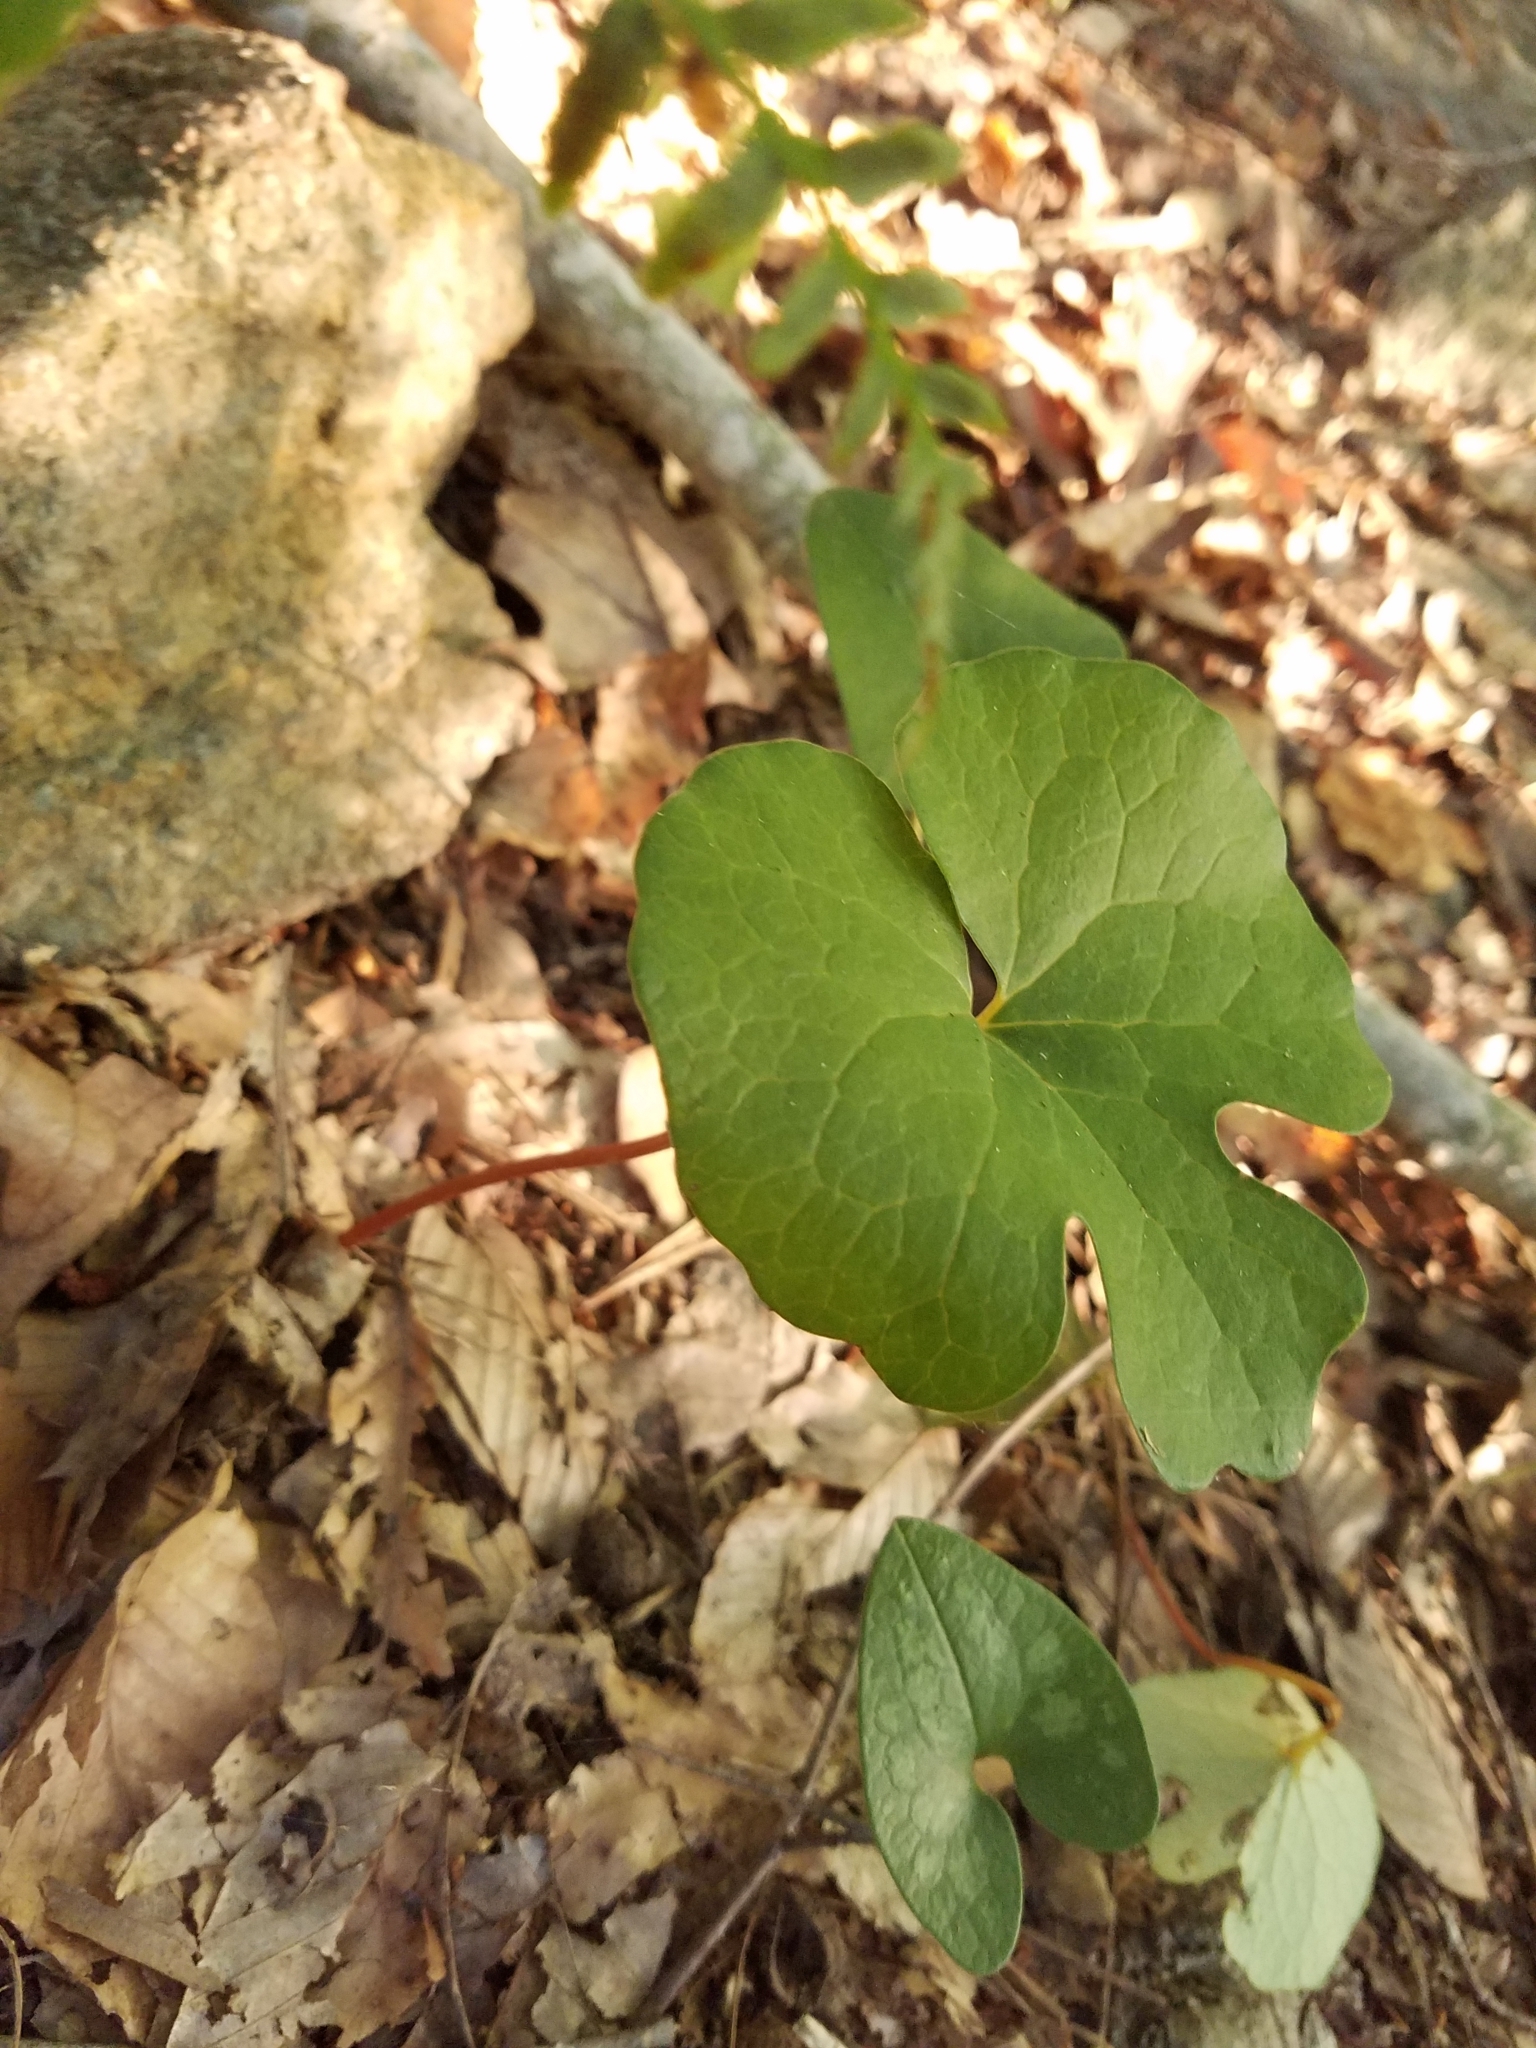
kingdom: Plantae
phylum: Tracheophyta
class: Magnoliopsida
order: Ranunculales
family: Papaveraceae
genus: Sanguinaria
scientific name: Sanguinaria canadensis
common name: Bloodroot
